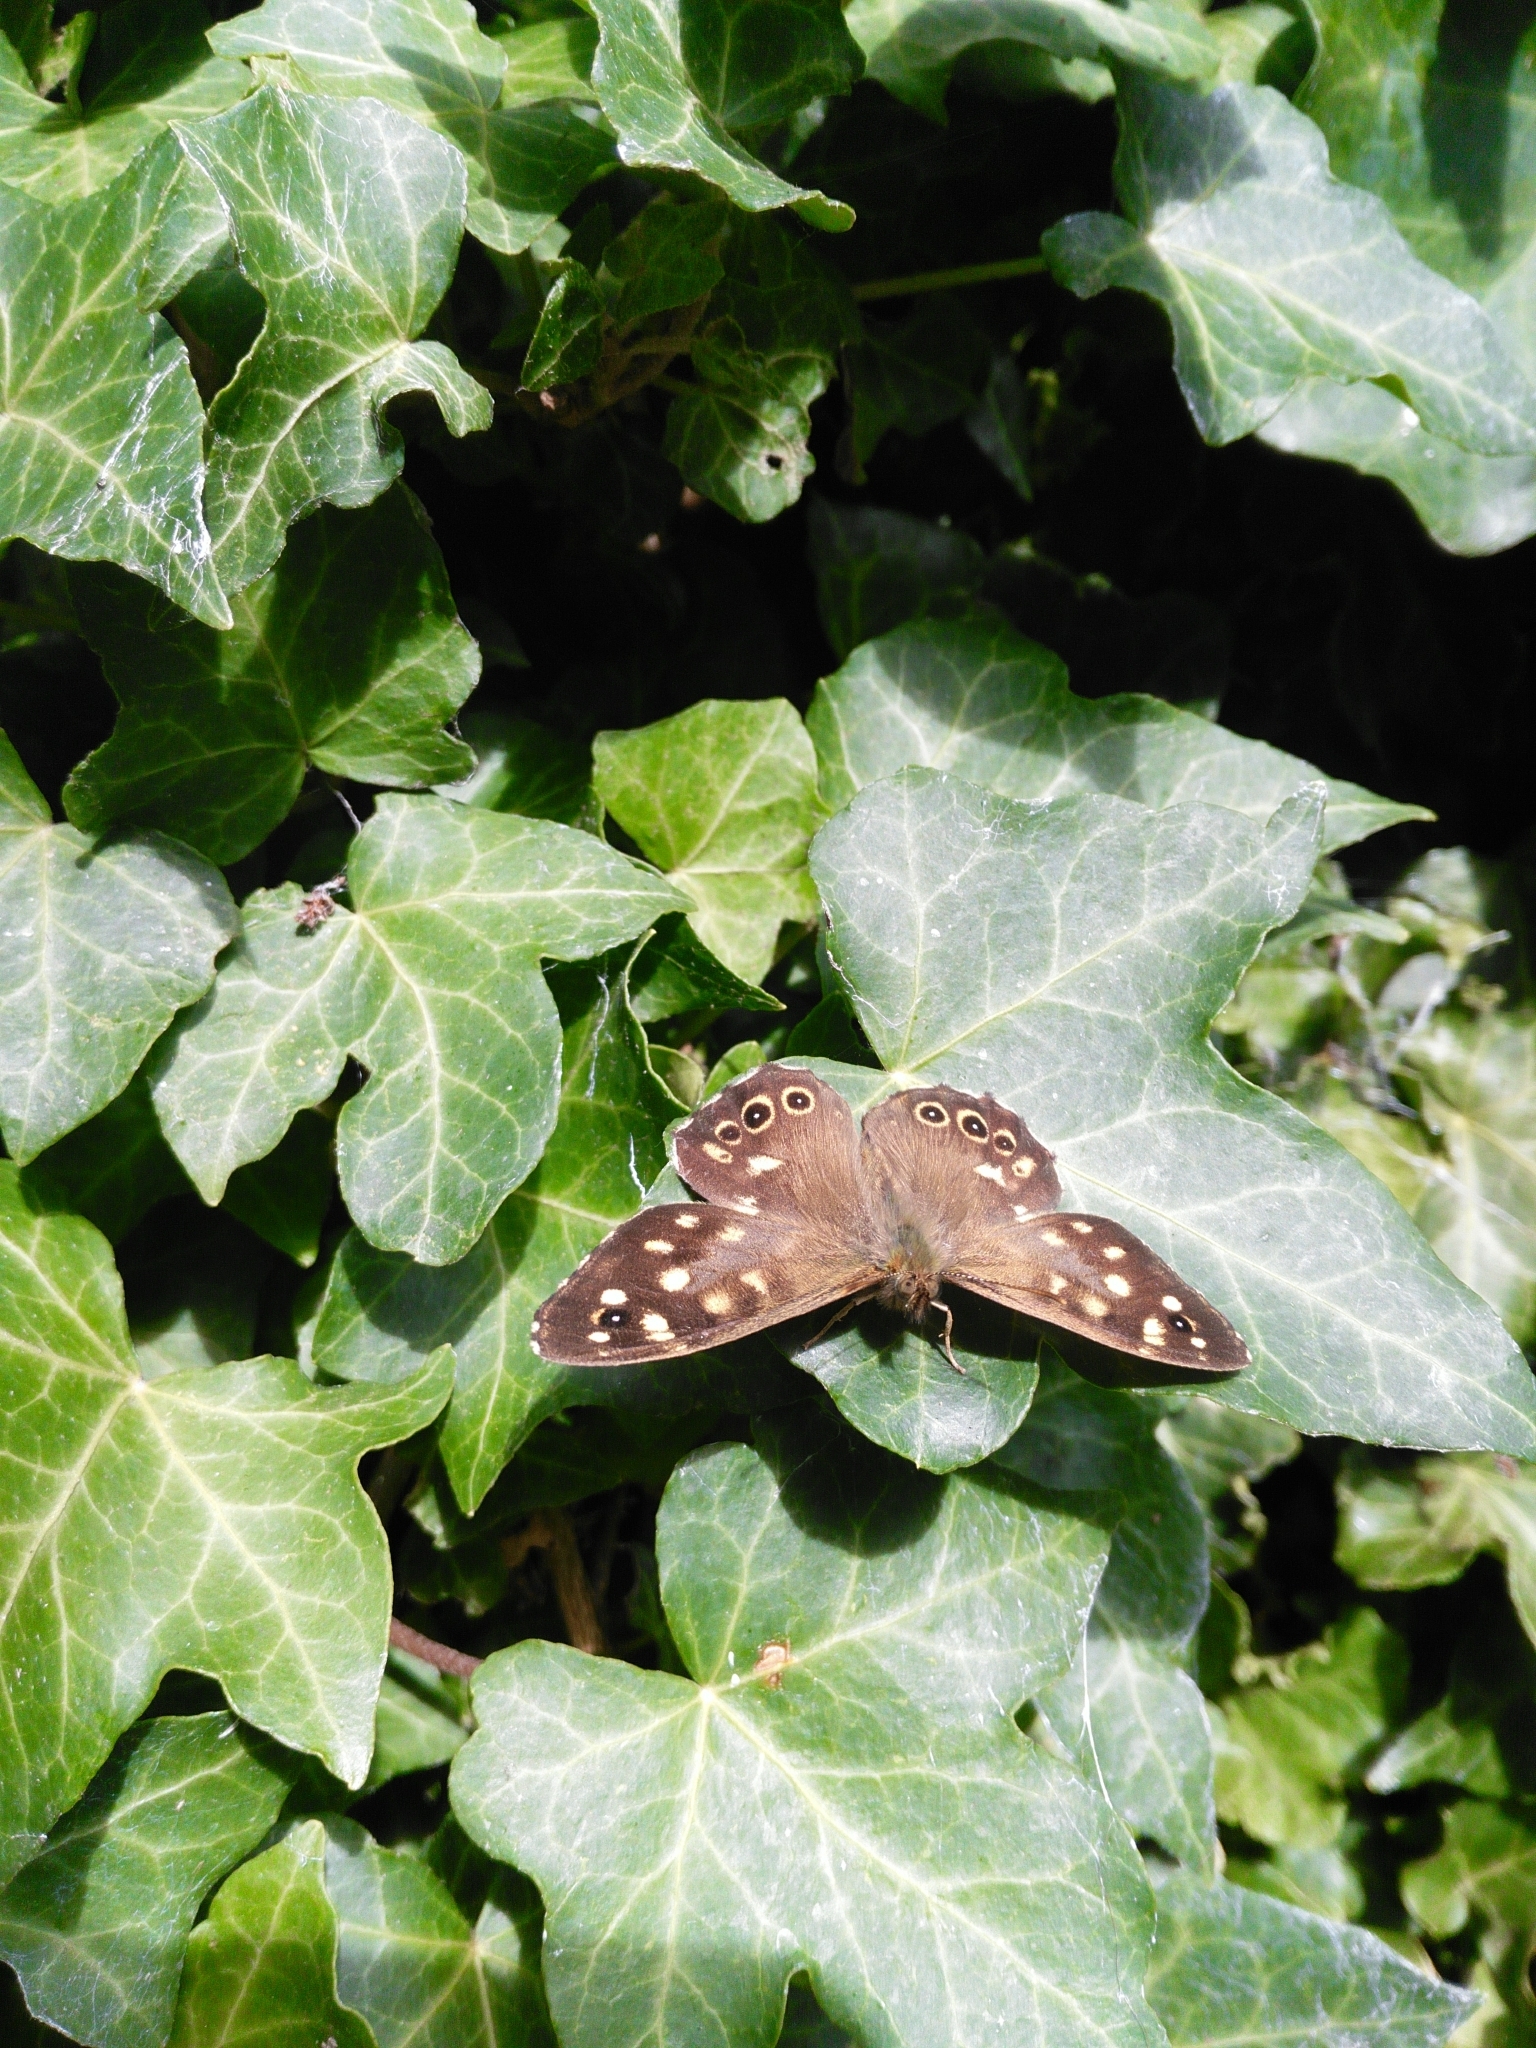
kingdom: Animalia
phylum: Arthropoda
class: Insecta
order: Lepidoptera
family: Nymphalidae
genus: Pararge
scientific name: Pararge aegeria
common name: Speckled wood
